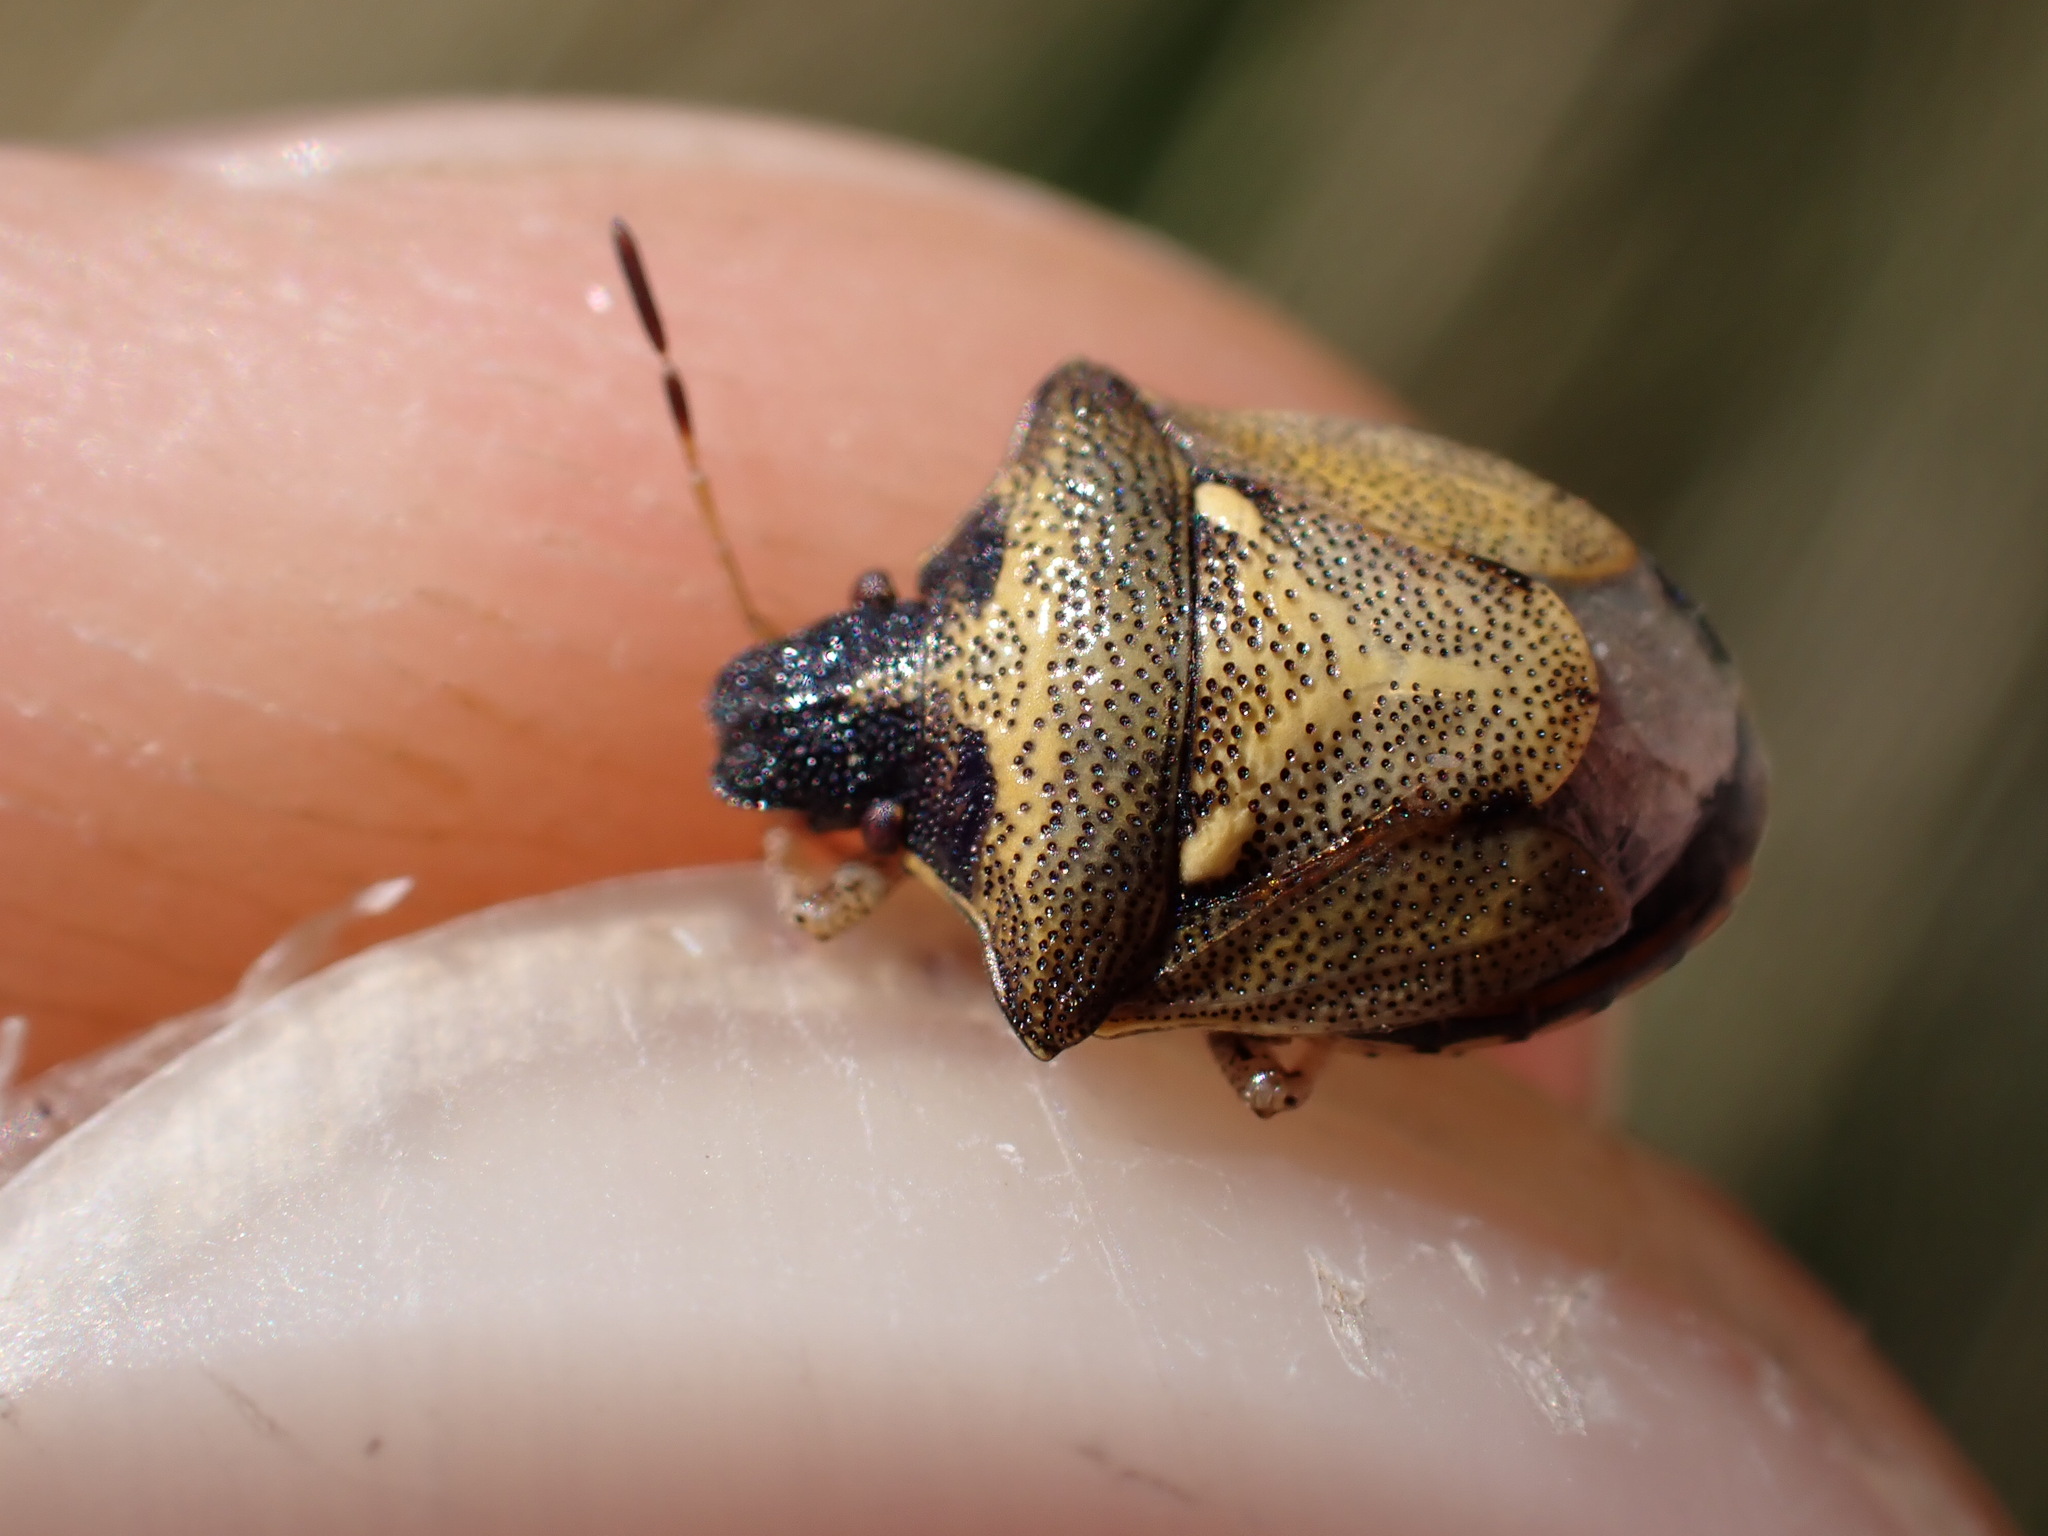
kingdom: Animalia
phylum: Arthropoda
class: Insecta
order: Hemiptera
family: Pentatomidae
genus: Eysarcoris
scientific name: Eysarcoris aeneus
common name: New forest shieldbug
